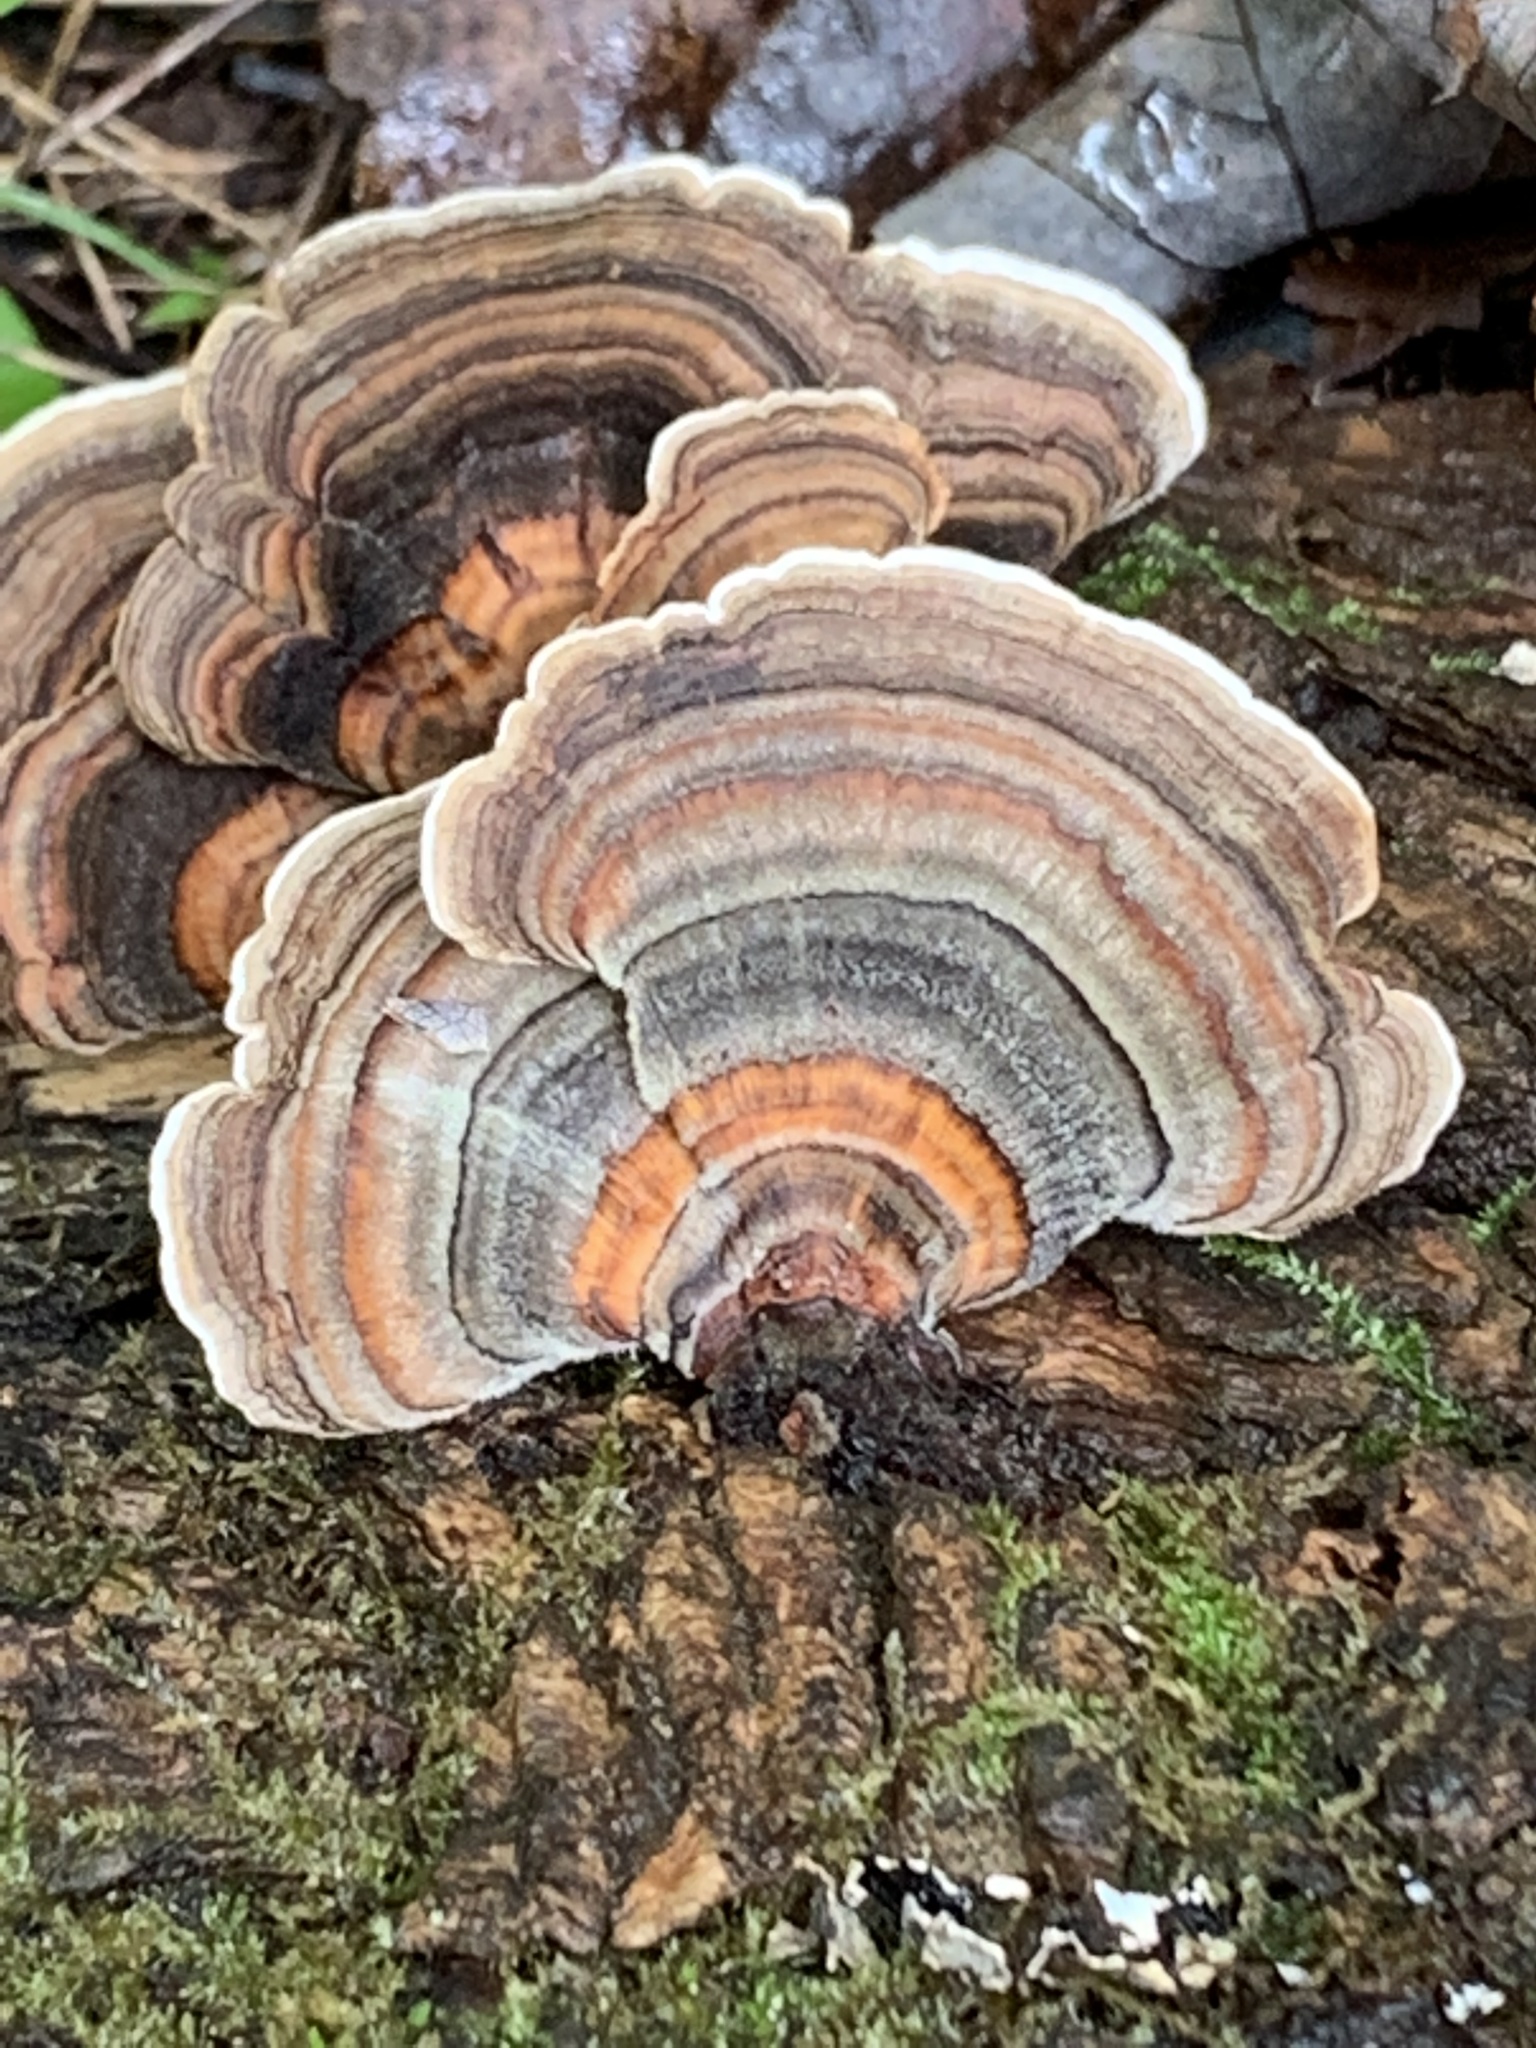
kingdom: Fungi
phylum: Basidiomycota
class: Agaricomycetes
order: Polyporales
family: Polyporaceae
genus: Trametes
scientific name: Trametes versicolor
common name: Turkeytail
